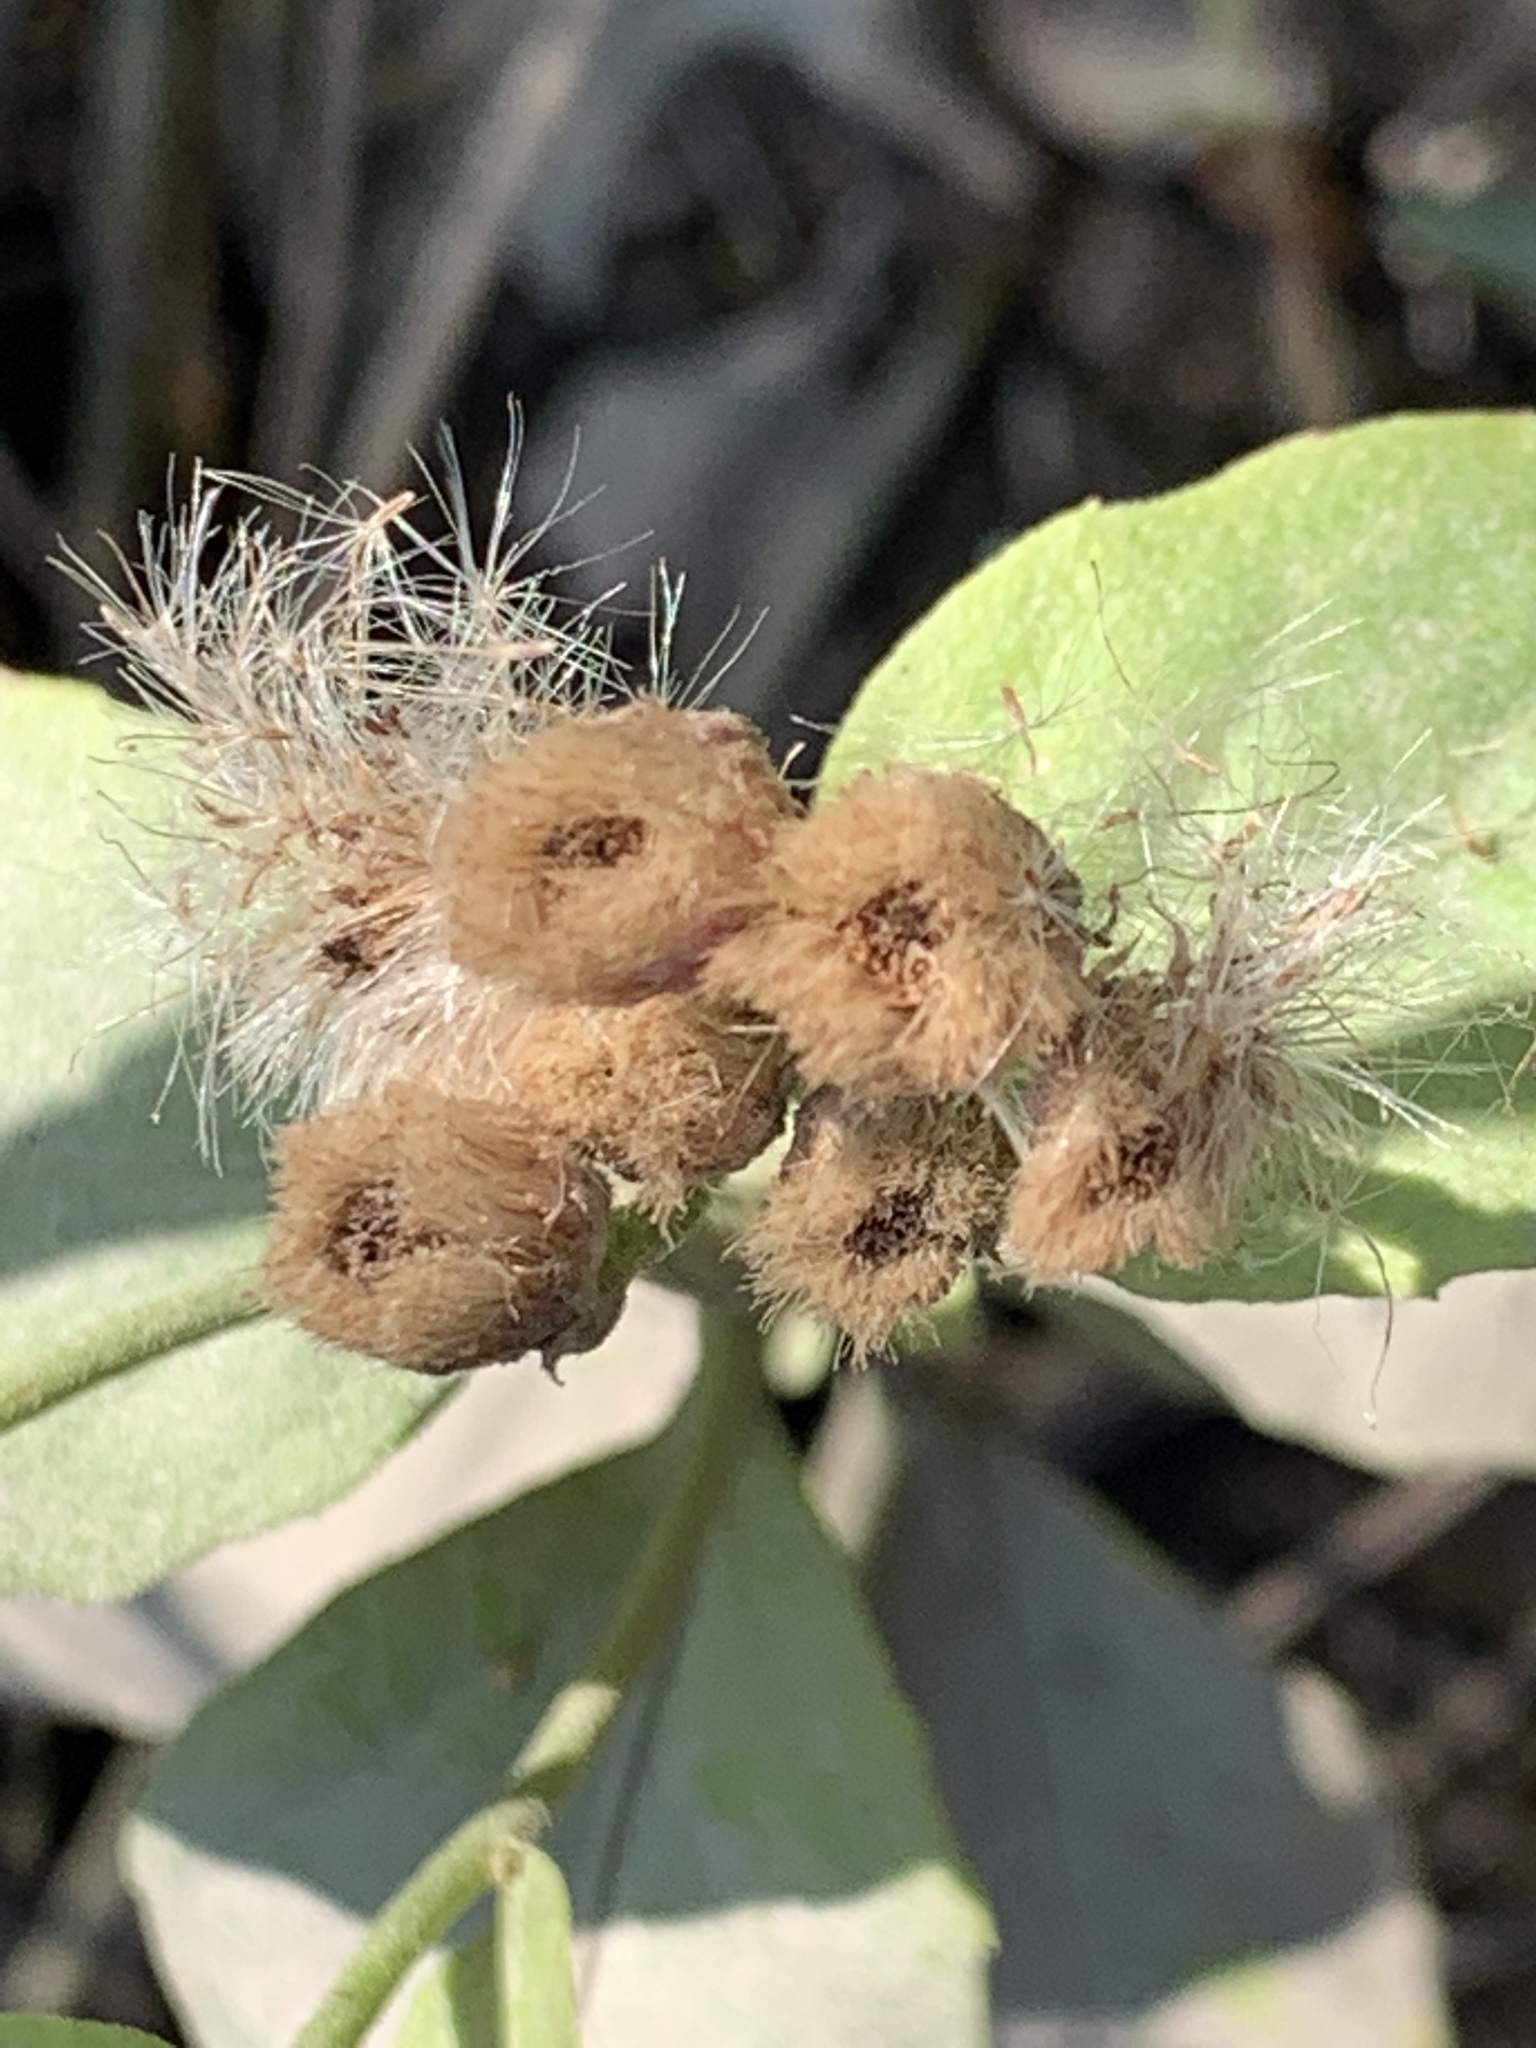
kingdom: Plantae
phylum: Tracheophyta
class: Magnoliopsida
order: Asterales
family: Asteraceae
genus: Pluchea
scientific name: Pluchea odorata
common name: Saltmarsh fleabane
